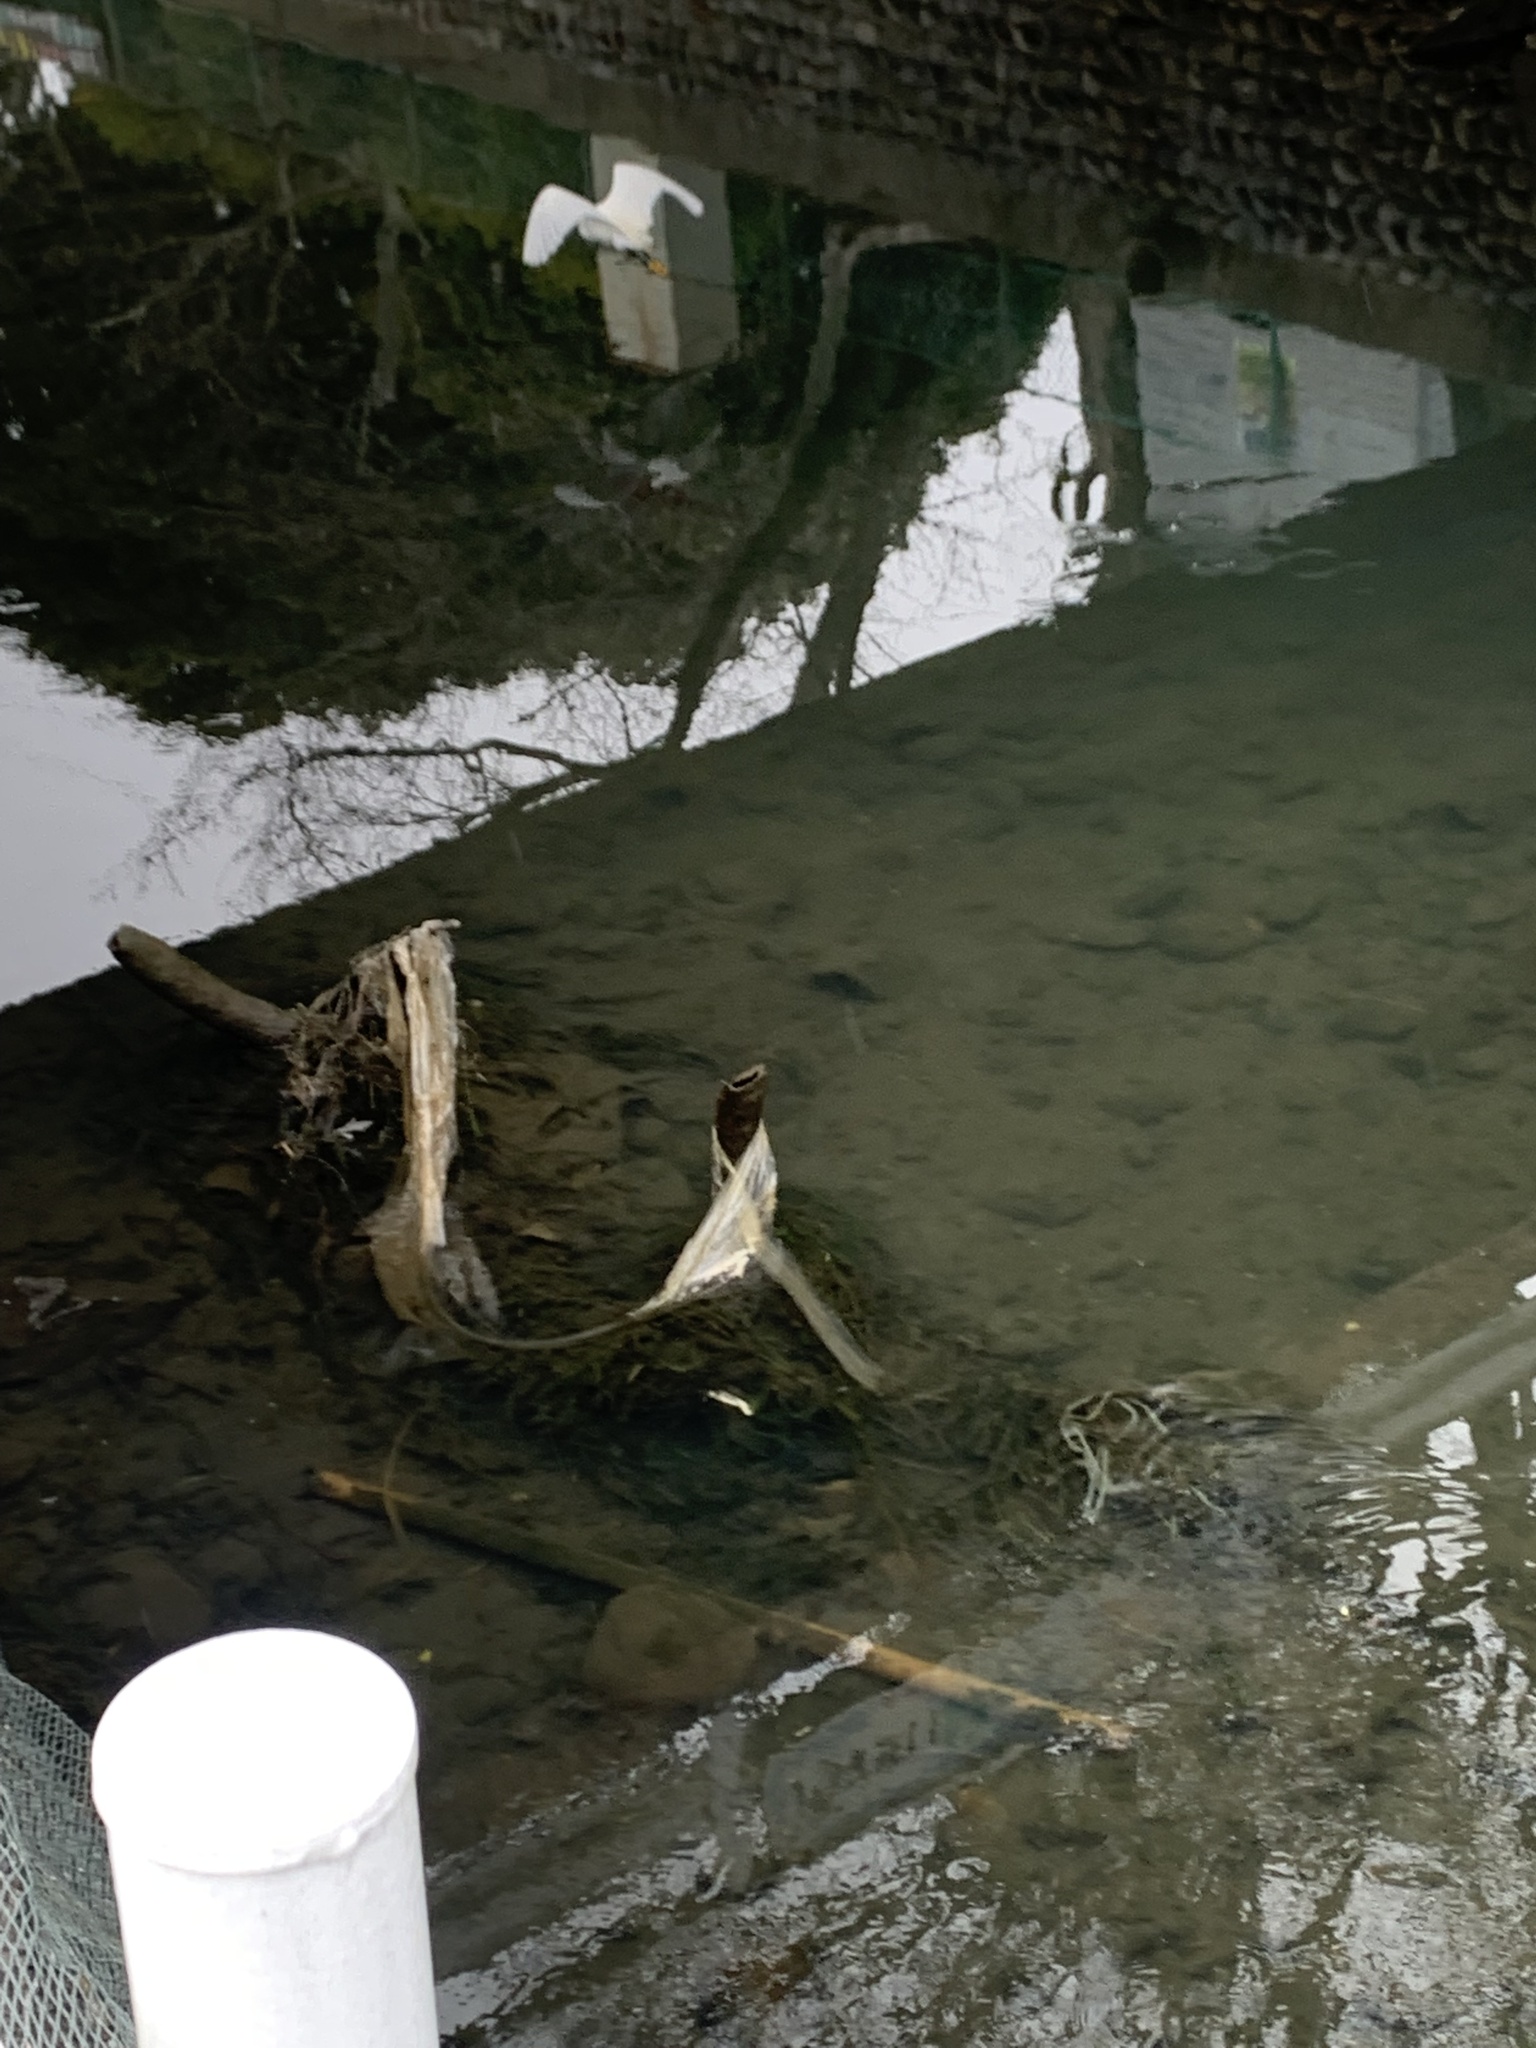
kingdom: Animalia
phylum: Chordata
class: Aves
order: Pelecaniformes
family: Ardeidae
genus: Egretta
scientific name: Egretta garzetta
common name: Little egret
